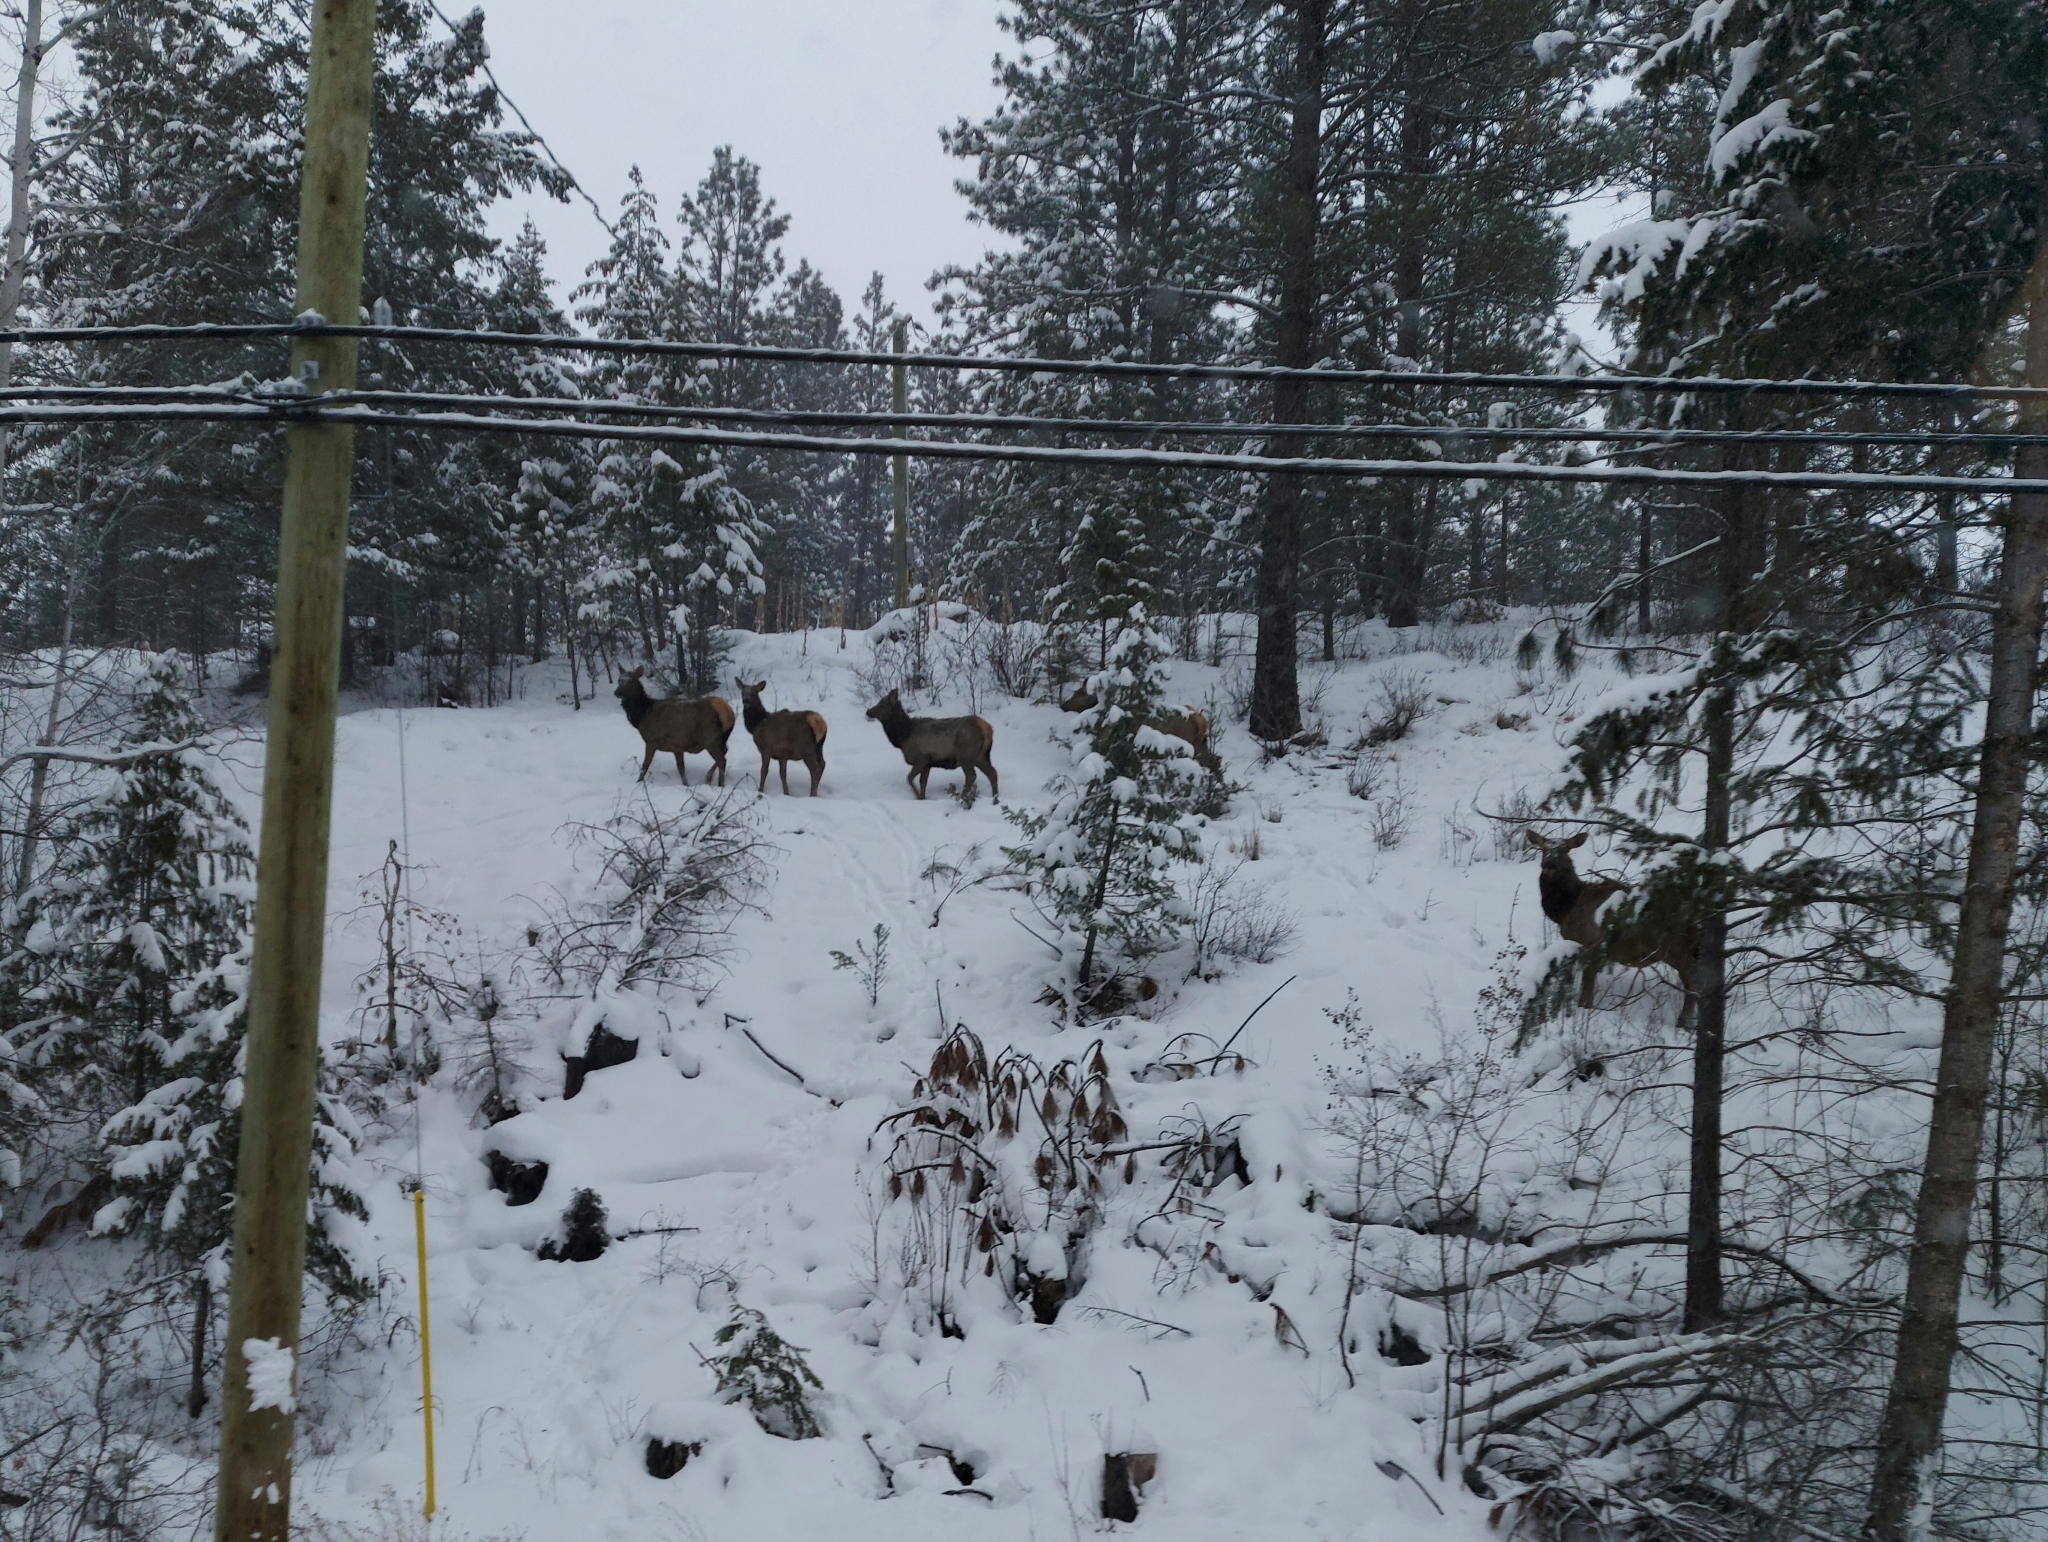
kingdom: Animalia
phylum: Chordata
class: Mammalia
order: Artiodactyla
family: Cervidae
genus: Cervus
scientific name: Cervus elaphus
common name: Red deer
